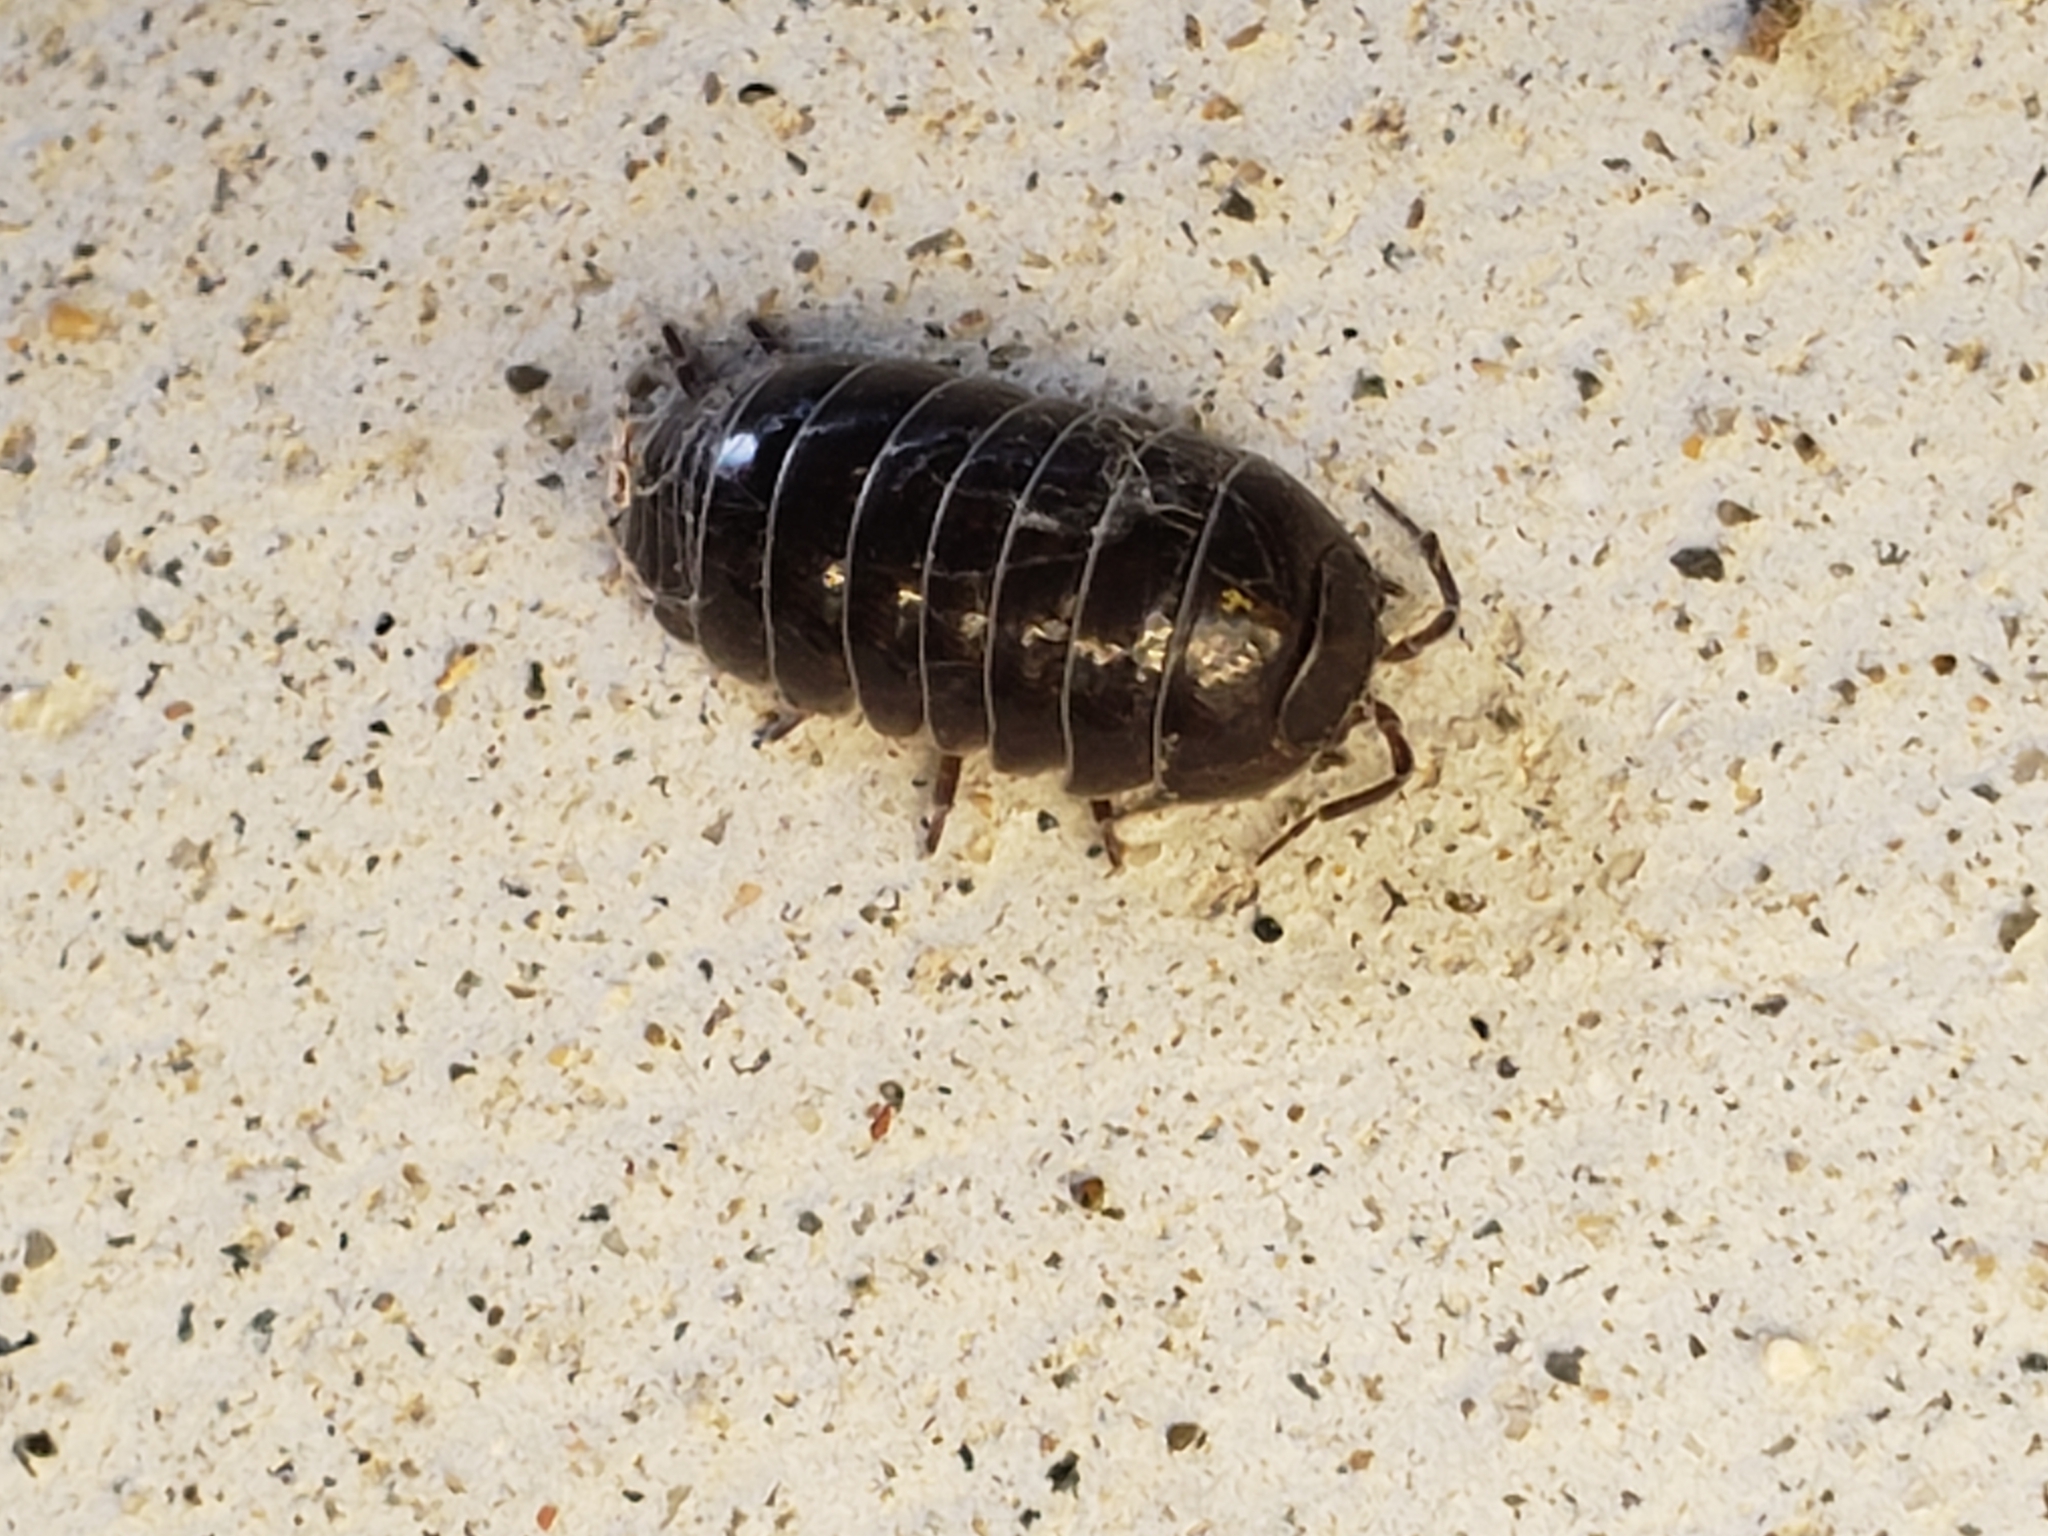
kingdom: Animalia
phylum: Arthropoda
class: Malacostraca
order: Isopoda
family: Armadillidiidae
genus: Armadillidium
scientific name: Armadillidium vulgare
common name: Common pill woodlouse
